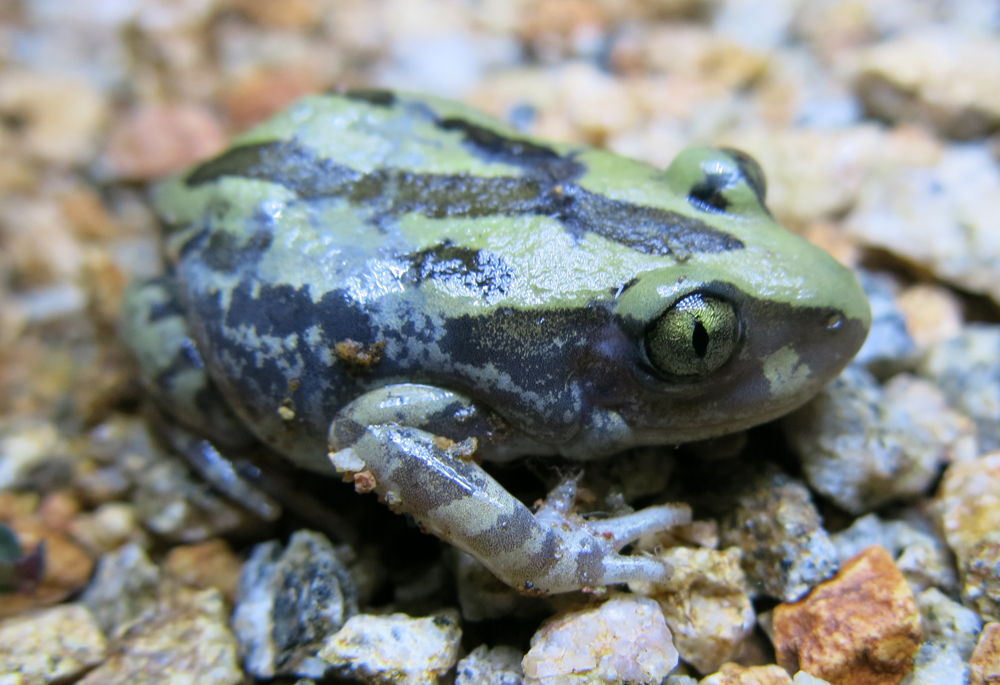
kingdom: Animalia
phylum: Chordata
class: Amphibia
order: Anura
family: Hyperoliidae
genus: Kassina
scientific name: Kassina senegalensis
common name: Senegal land frog
